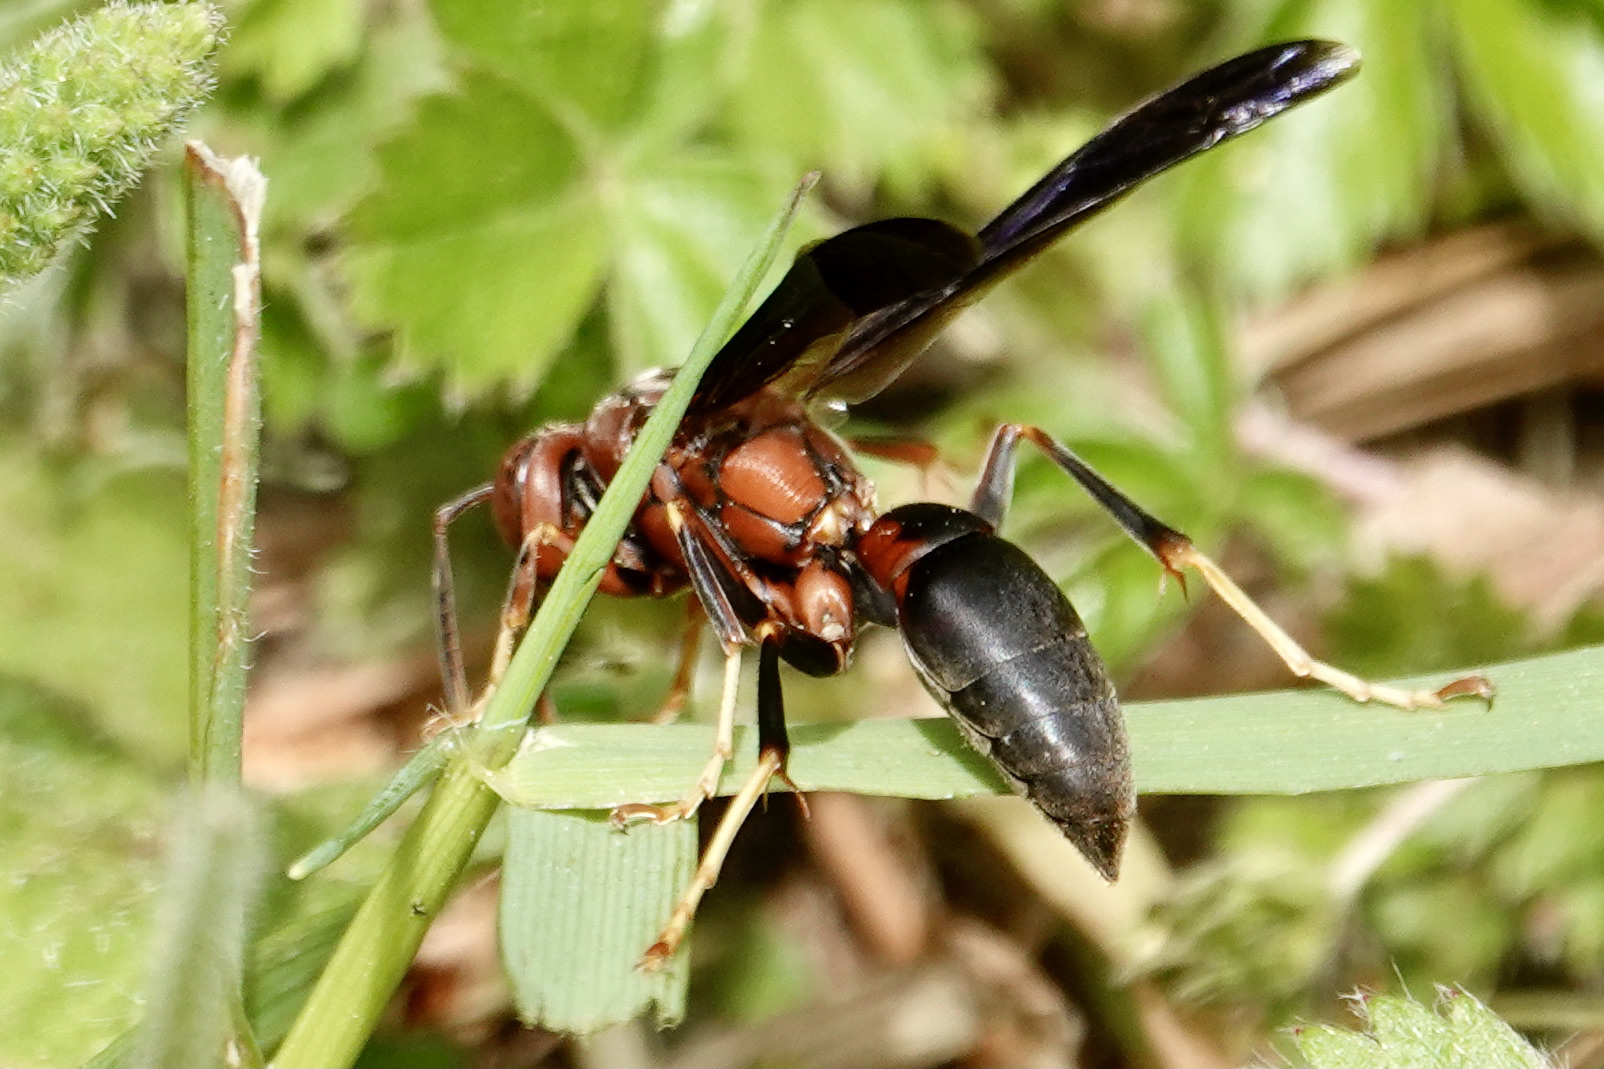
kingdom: Animalia
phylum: Arthropoda
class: Insecta
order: Hymenoptera
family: Eumenidae
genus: Polistes
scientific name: Polistes metricus
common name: Metric paper wasp
